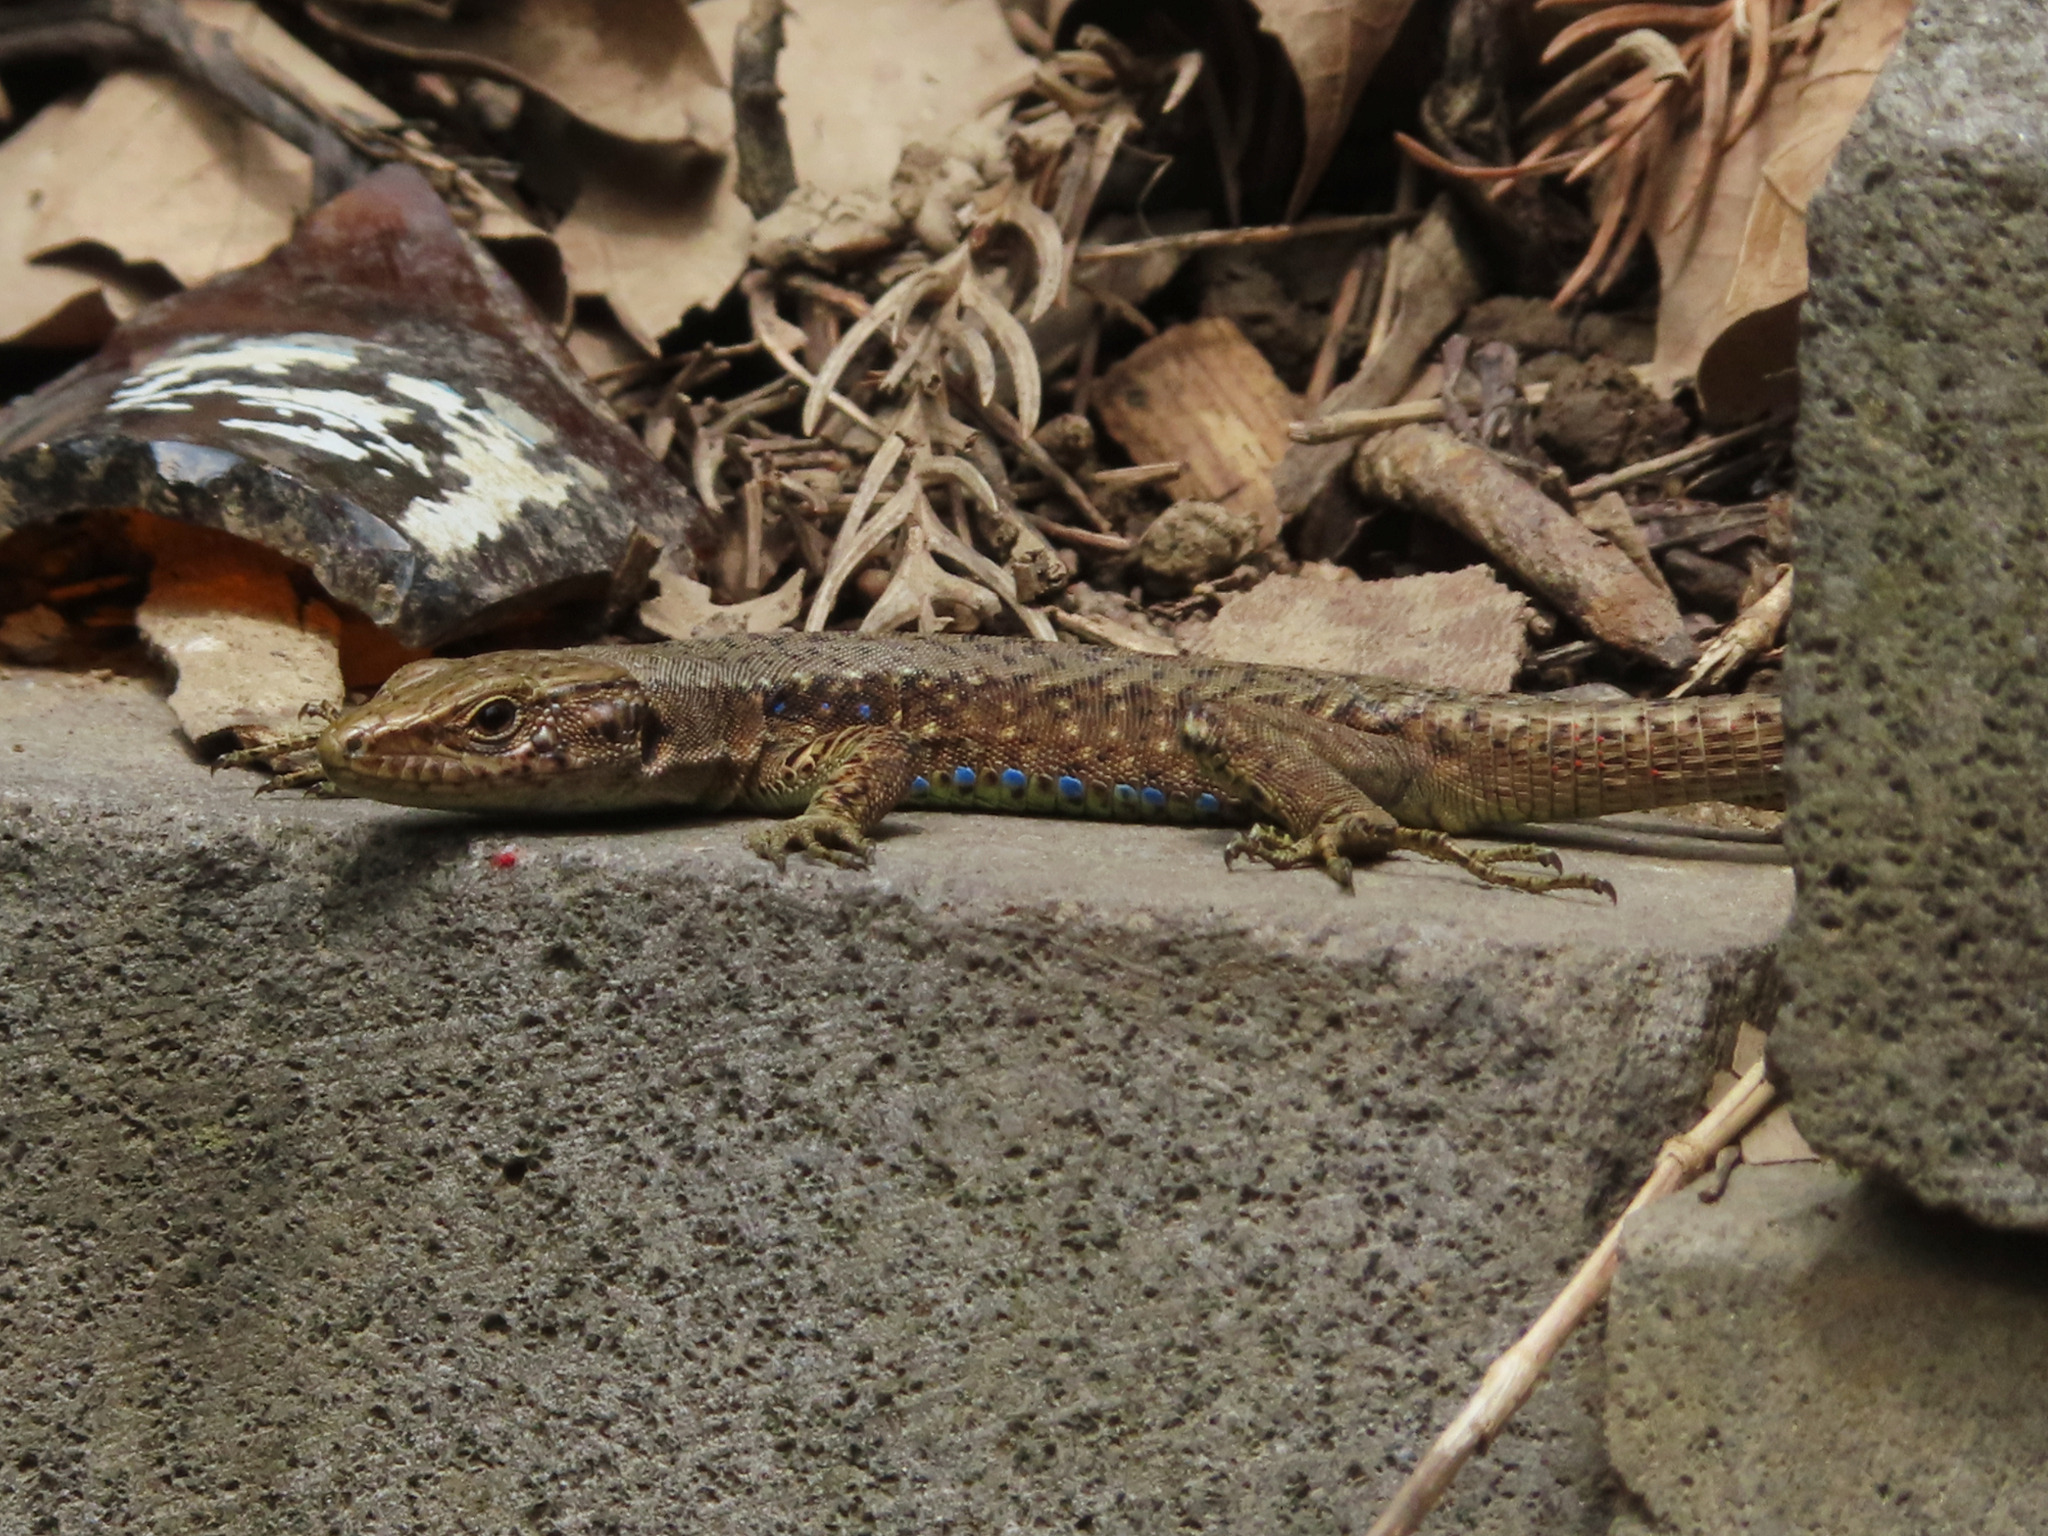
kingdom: Animalia
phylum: Chordata
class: Squamata
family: Lacertidae
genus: Darevskia
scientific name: Darevskia mixta
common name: Ajarian lizard
